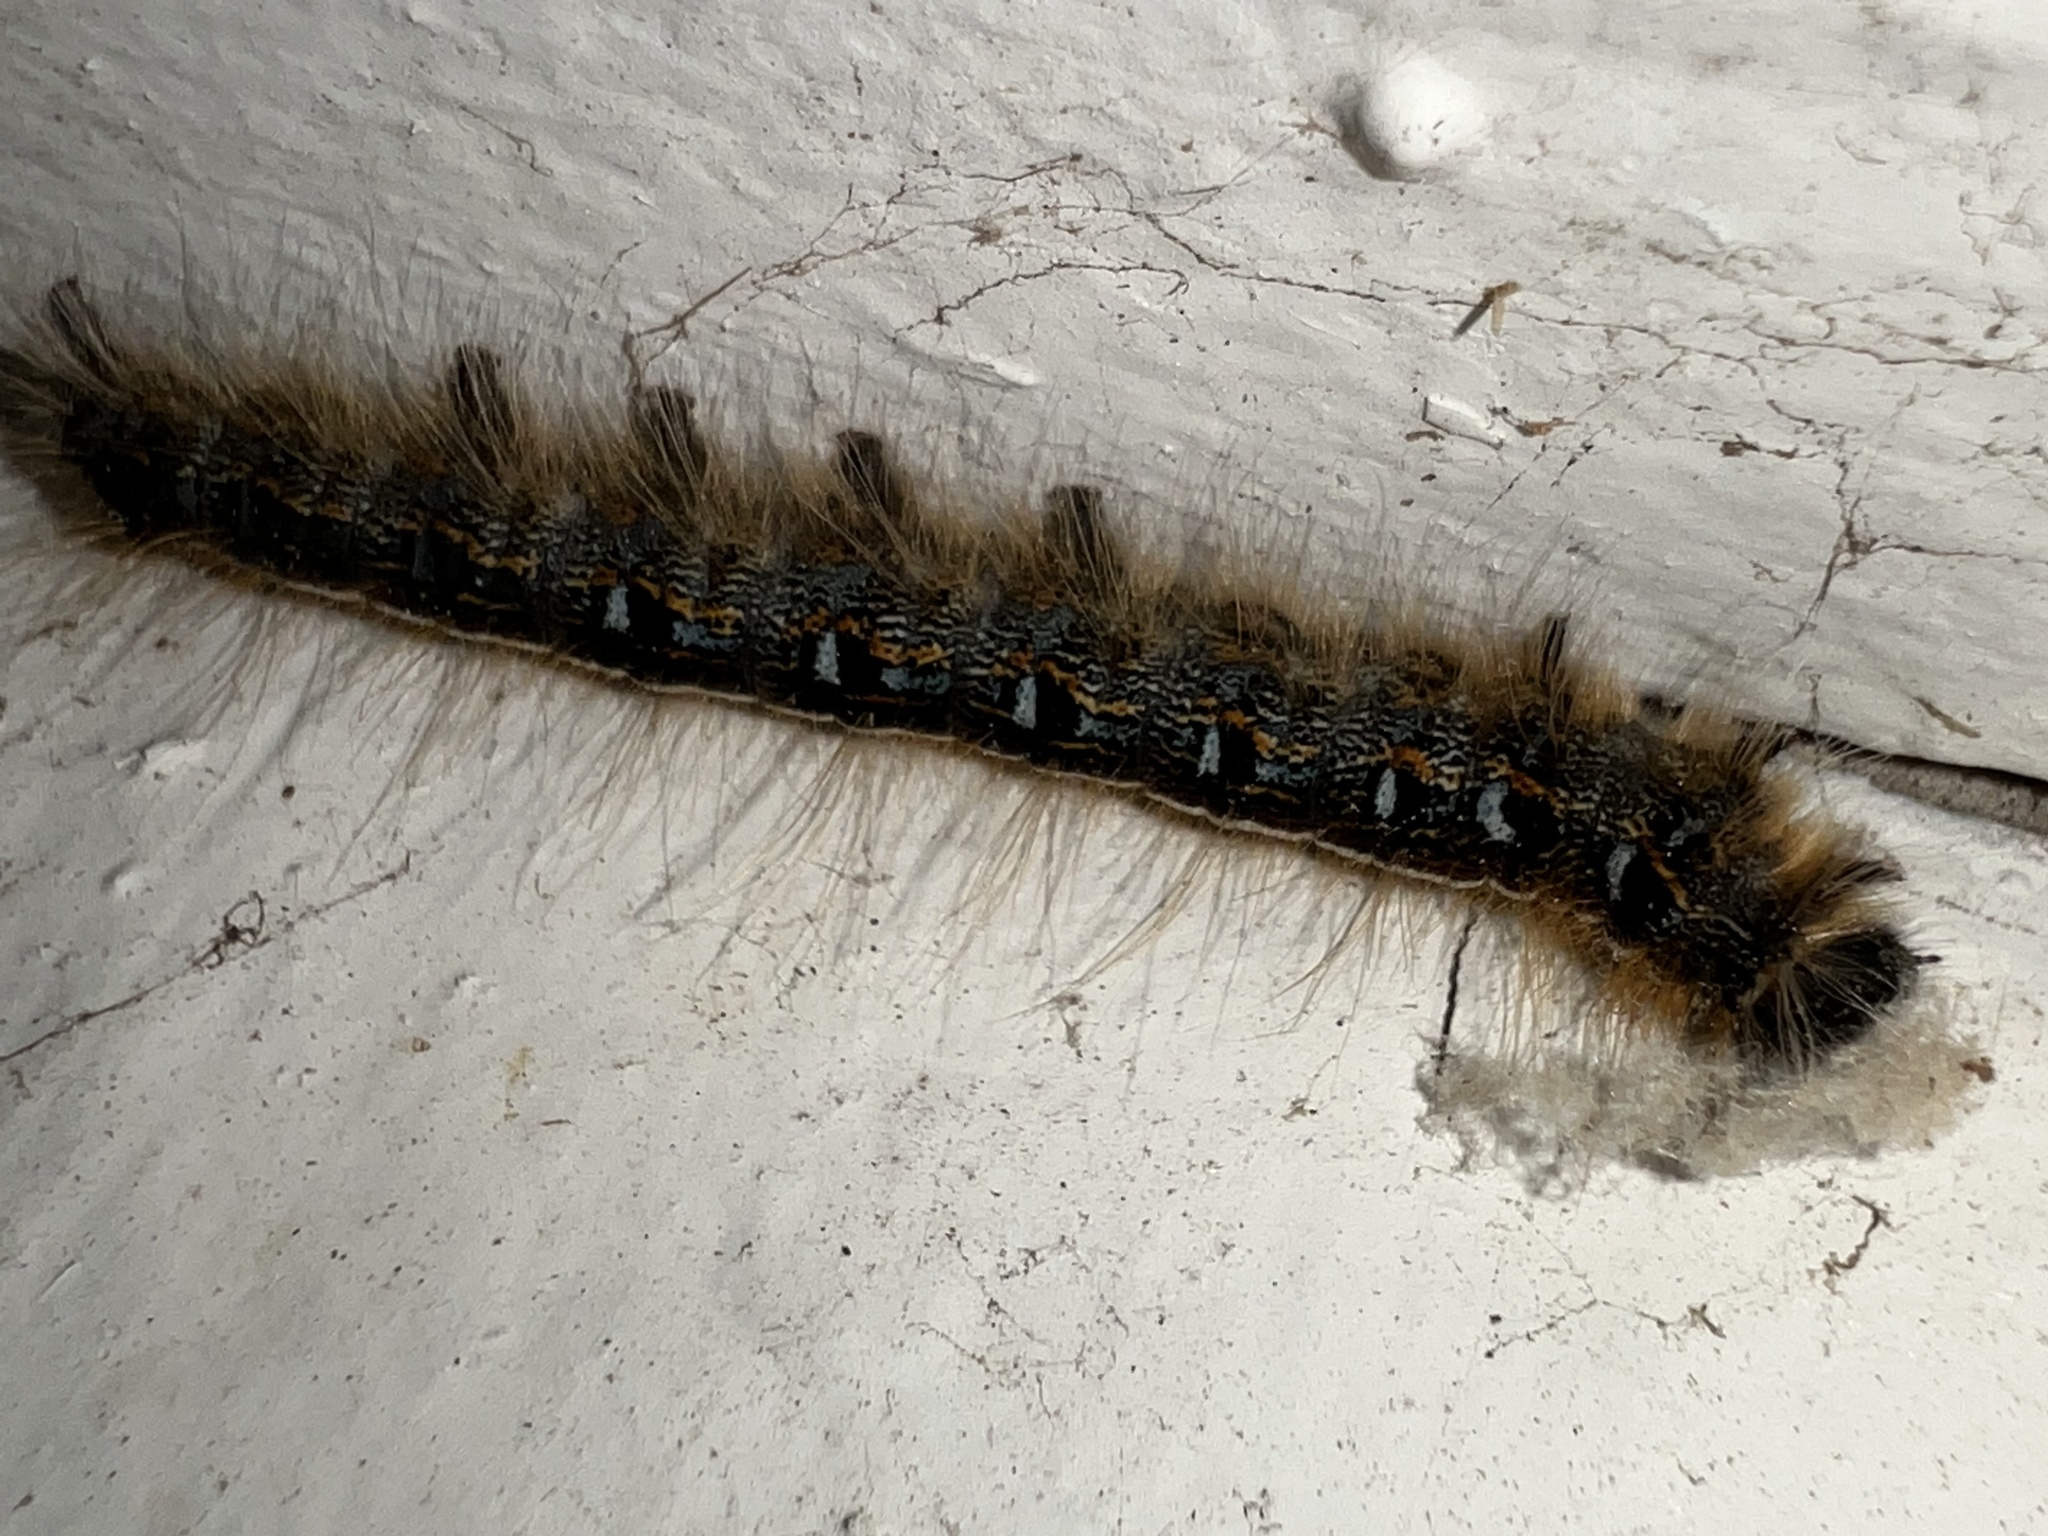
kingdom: Animalia
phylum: Arthropoda
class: Insecta
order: Lepidoptera
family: Lasiocampidae
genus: Malacosoma
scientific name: Malacosoma americana
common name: Eastern tent caterpillar moth
